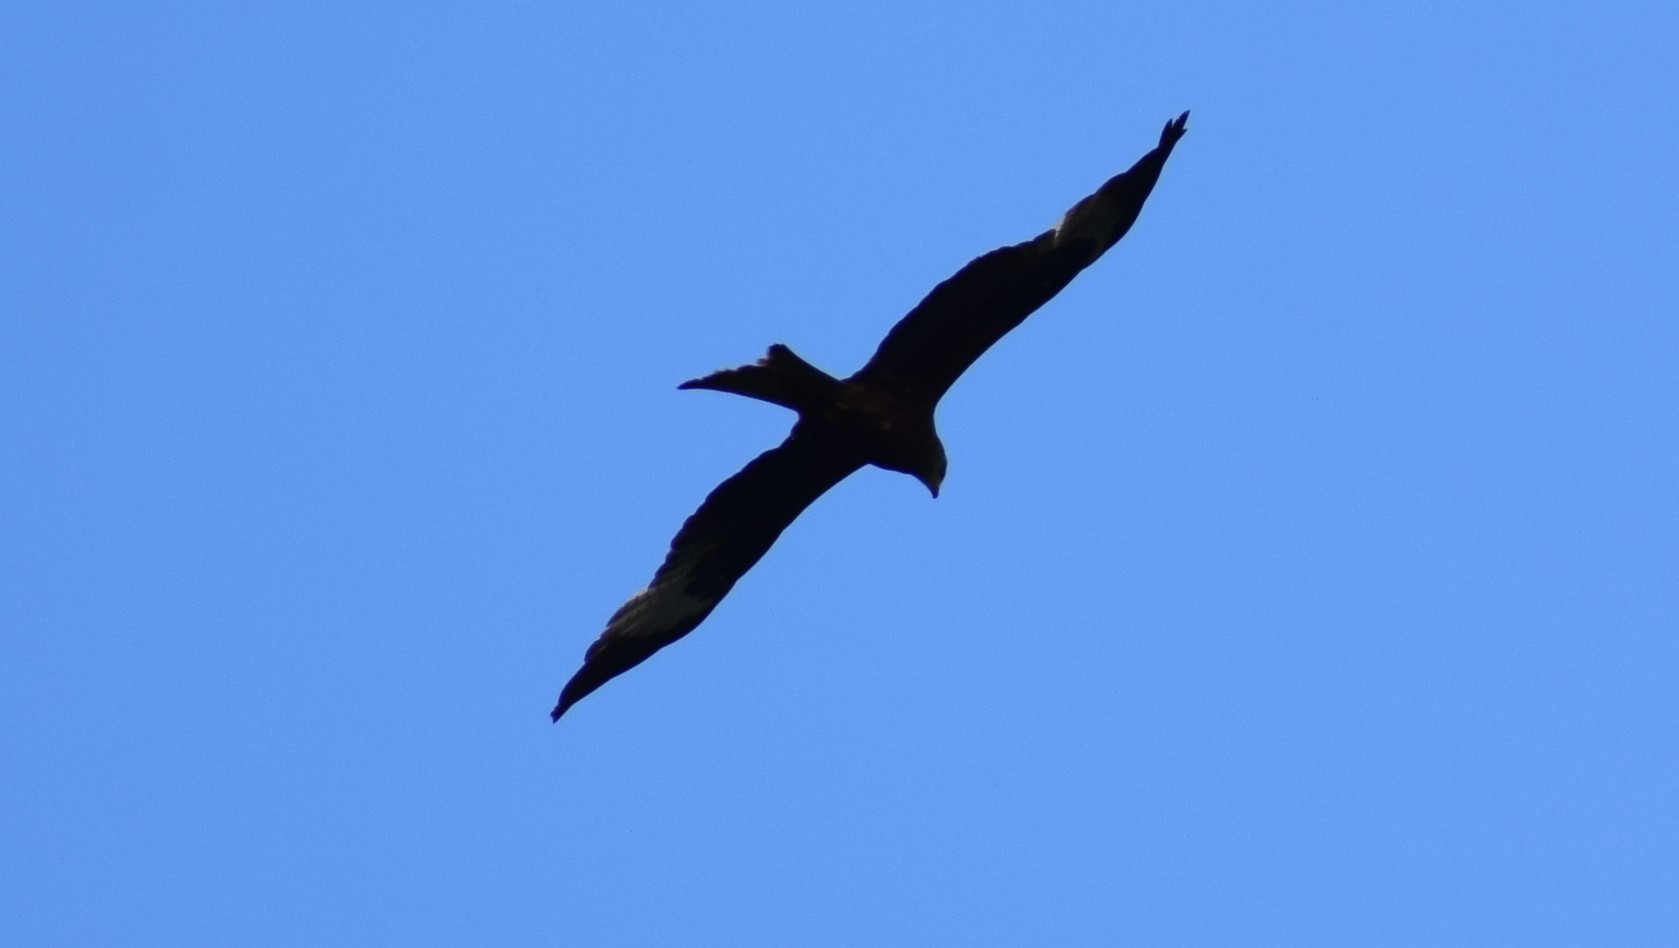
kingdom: Animalia
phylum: Chordata
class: Aves
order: Accipitriformes
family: Accipitridae
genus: Milvus
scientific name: Milvus milvus
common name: Red kite
